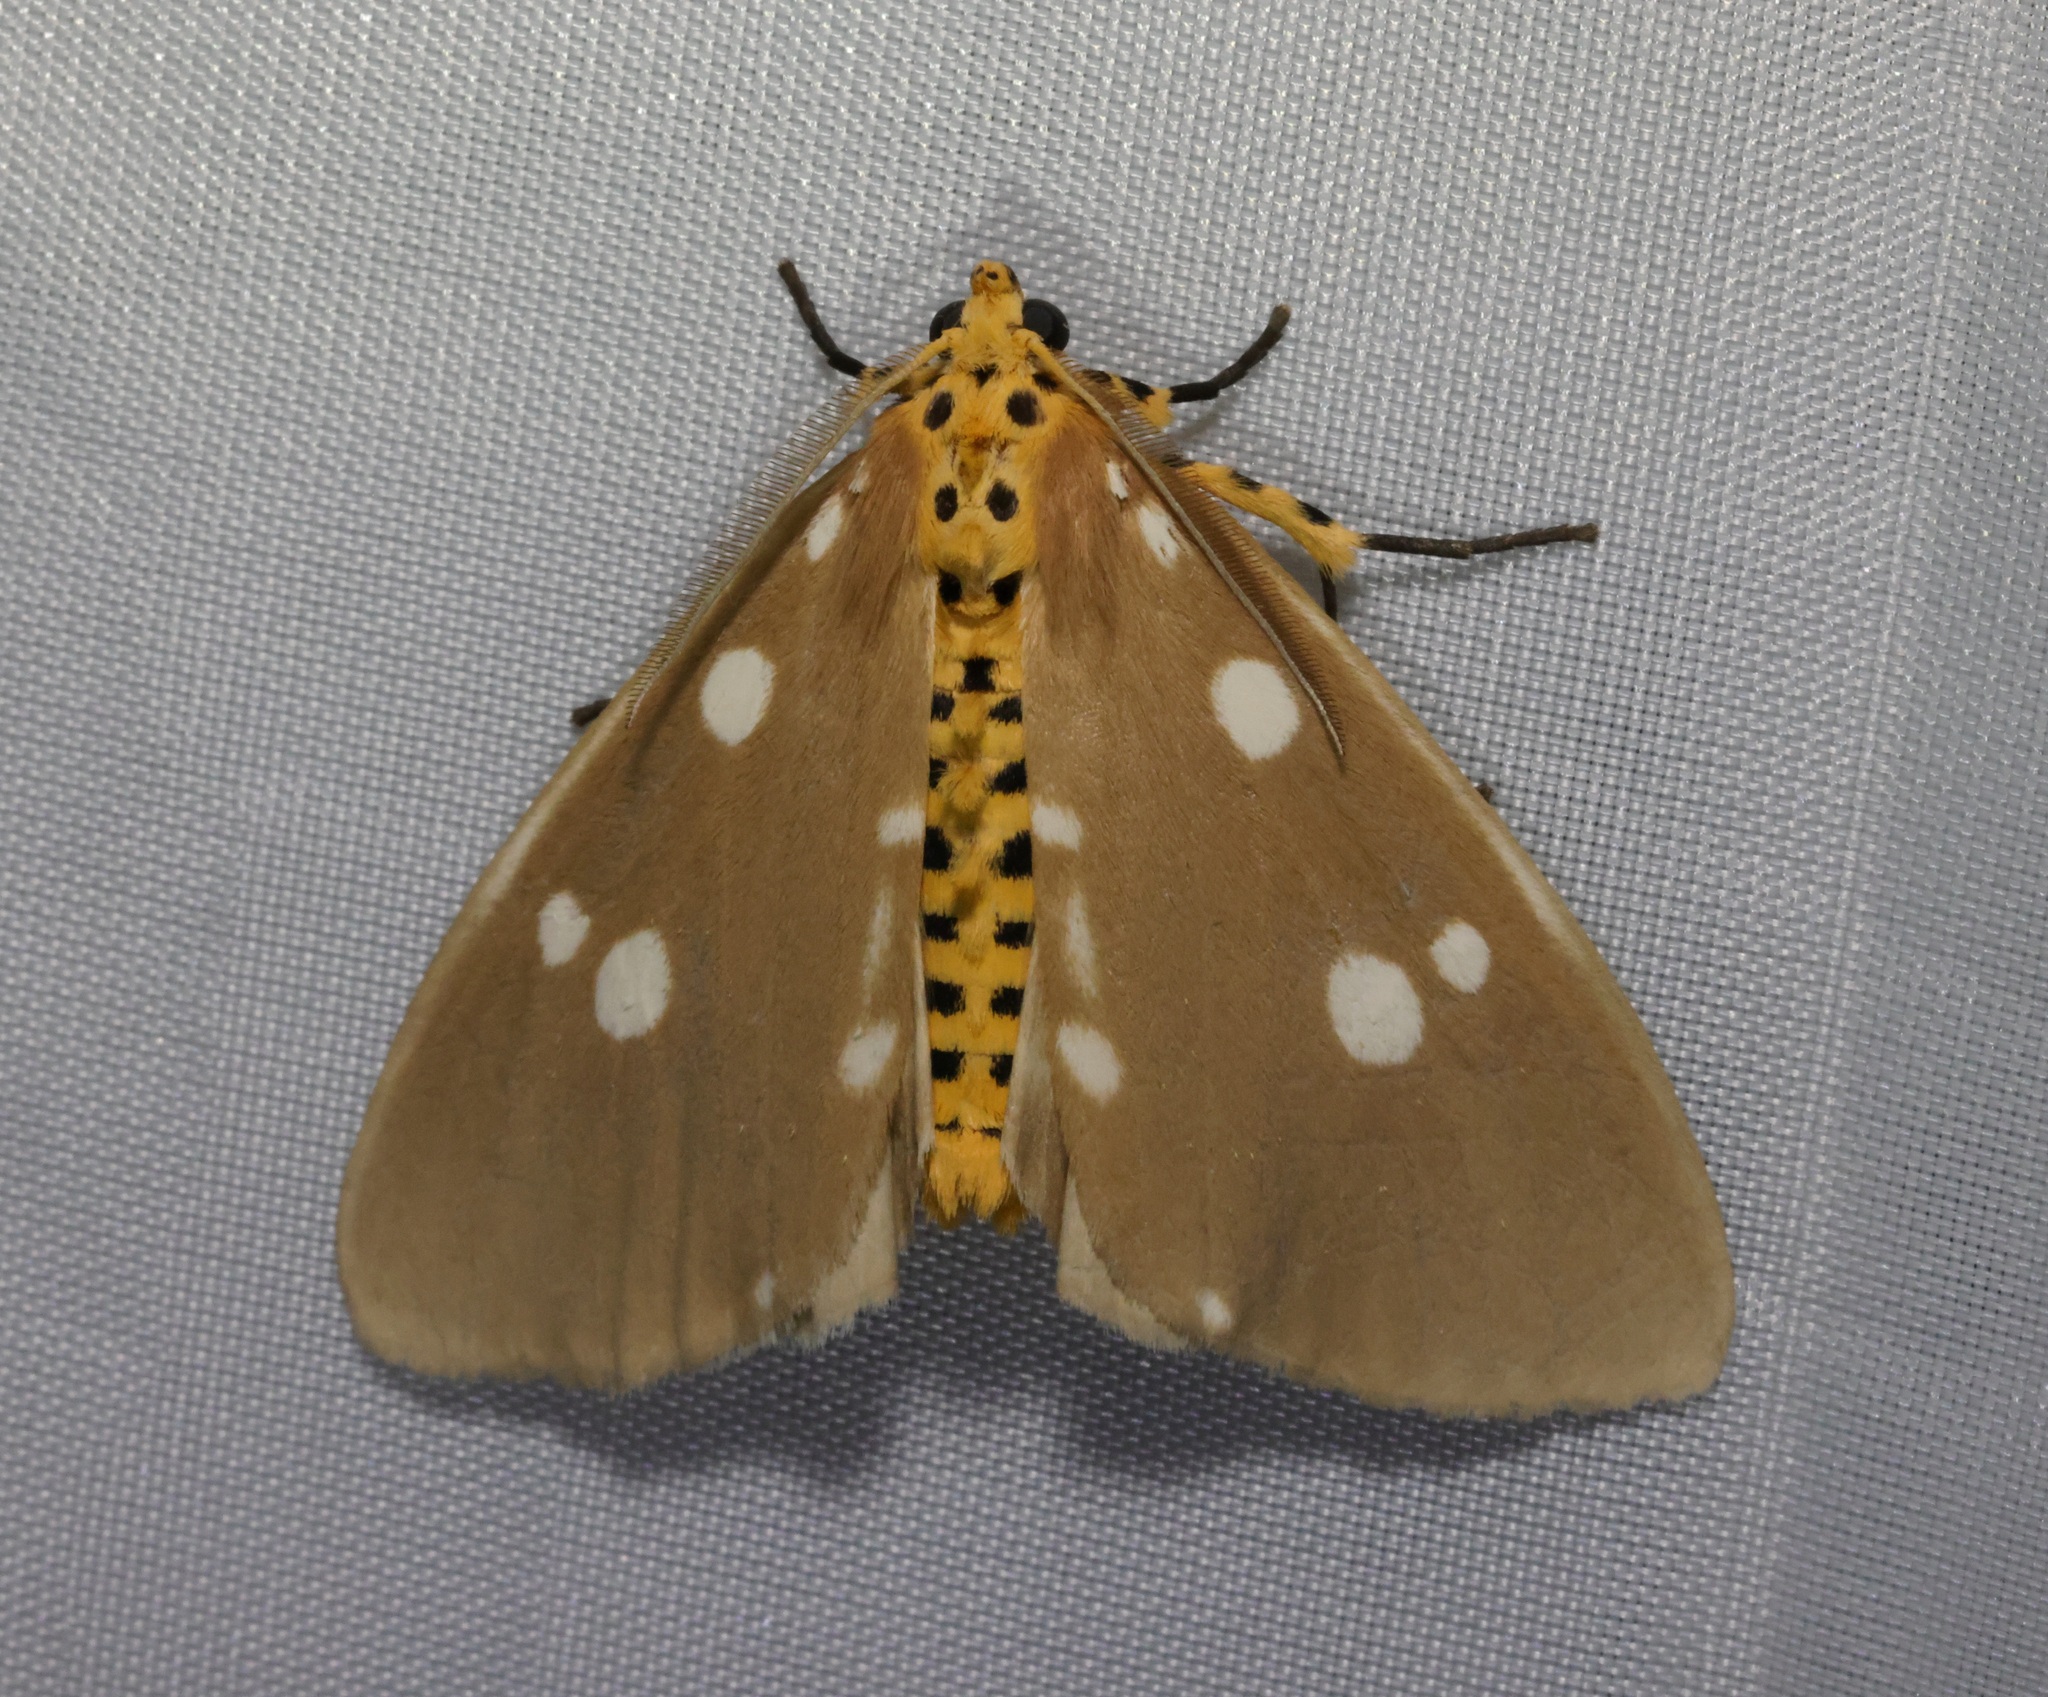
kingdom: Animalia
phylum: Arthropoda
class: Insecta
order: Lepidoptera
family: Erebidae
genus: Tinolius
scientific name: Tinolius hypsana
